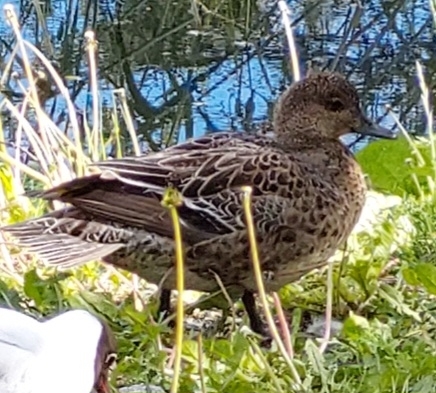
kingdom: Animalia
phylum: Chordata
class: Aves
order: Anseriformes
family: Anatidae
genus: Mareca
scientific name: Mareca penelope
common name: Eurasian wigeon
